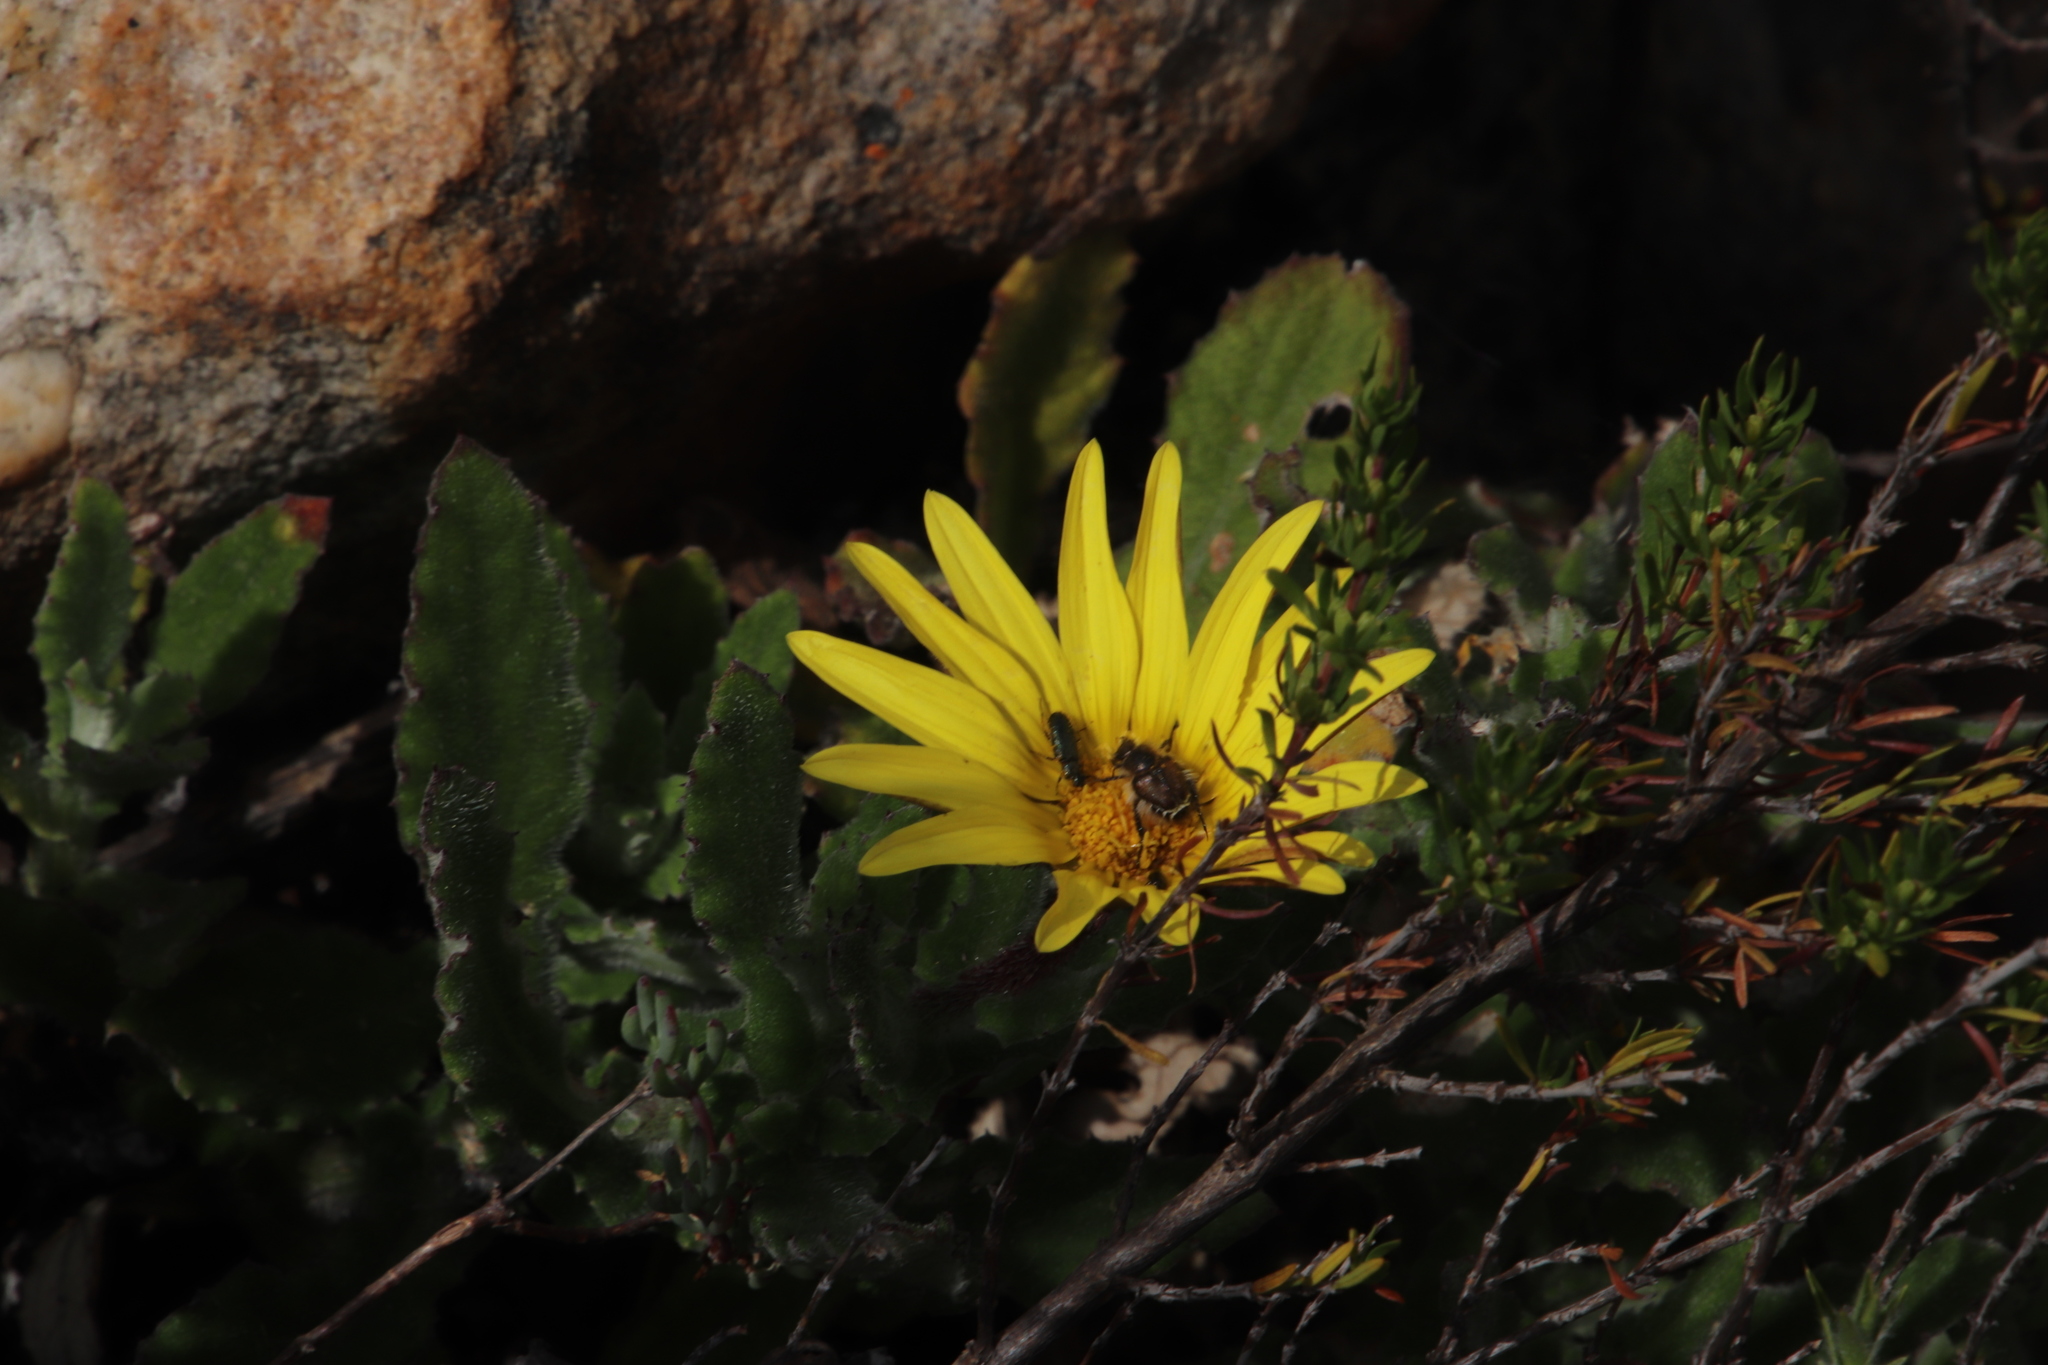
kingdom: Plantae
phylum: Tracheophyta
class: Magnoliopsida
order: Asterales
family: Asteraceae
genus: Osteospermum
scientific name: Osteospermum ilicifolium
